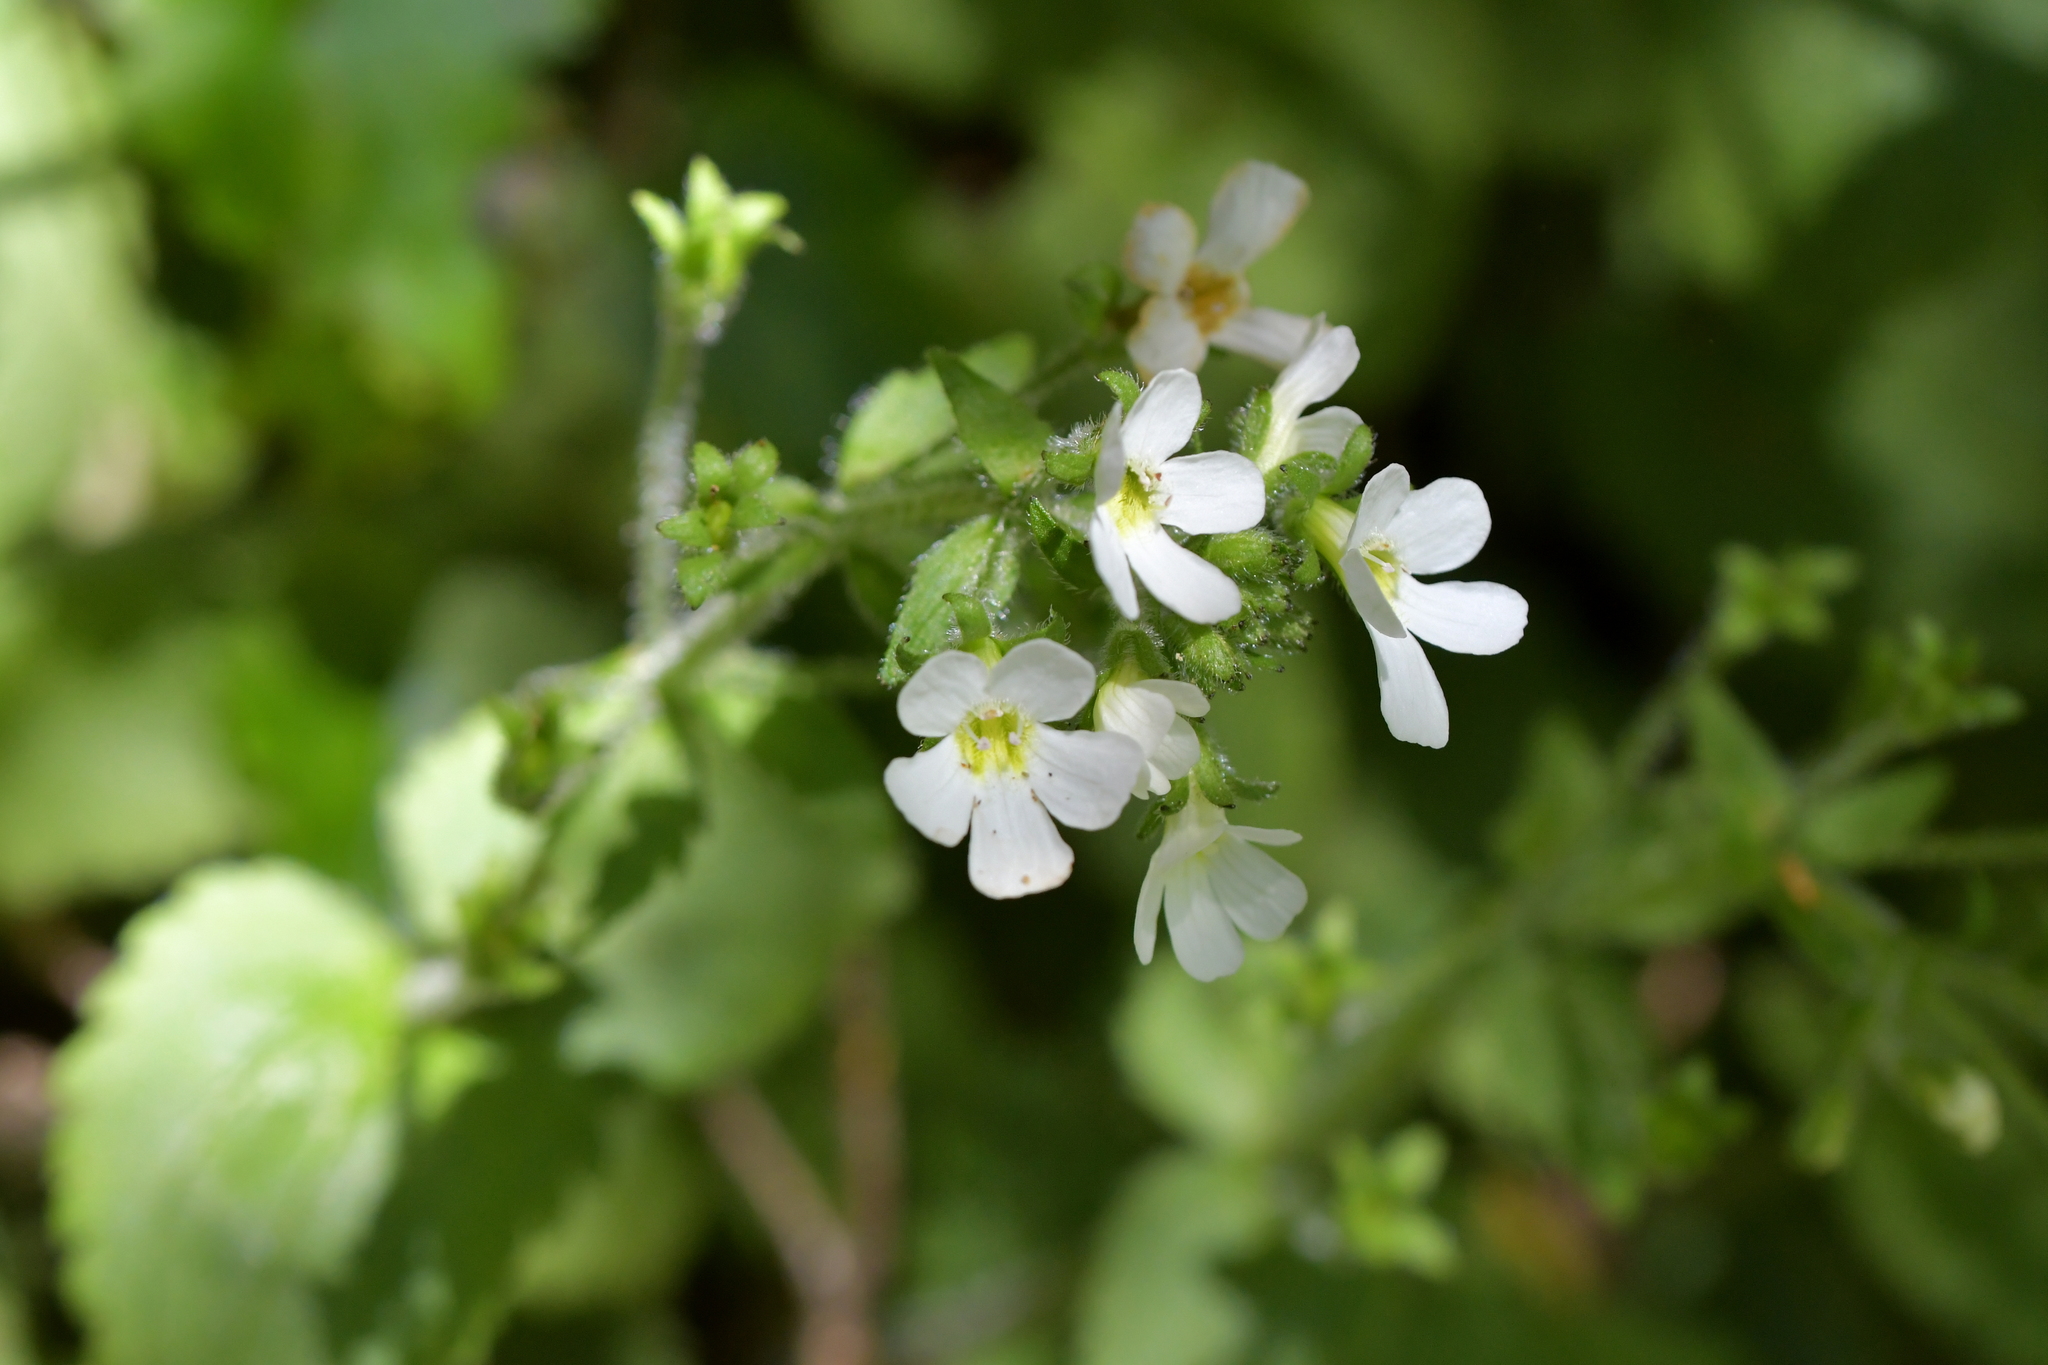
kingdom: Plantae
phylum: Tracheophyta
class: Magnoliopsida
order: Lamiales
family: Plantaginaceae
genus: Ourisia
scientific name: Ourisia crosbyi
